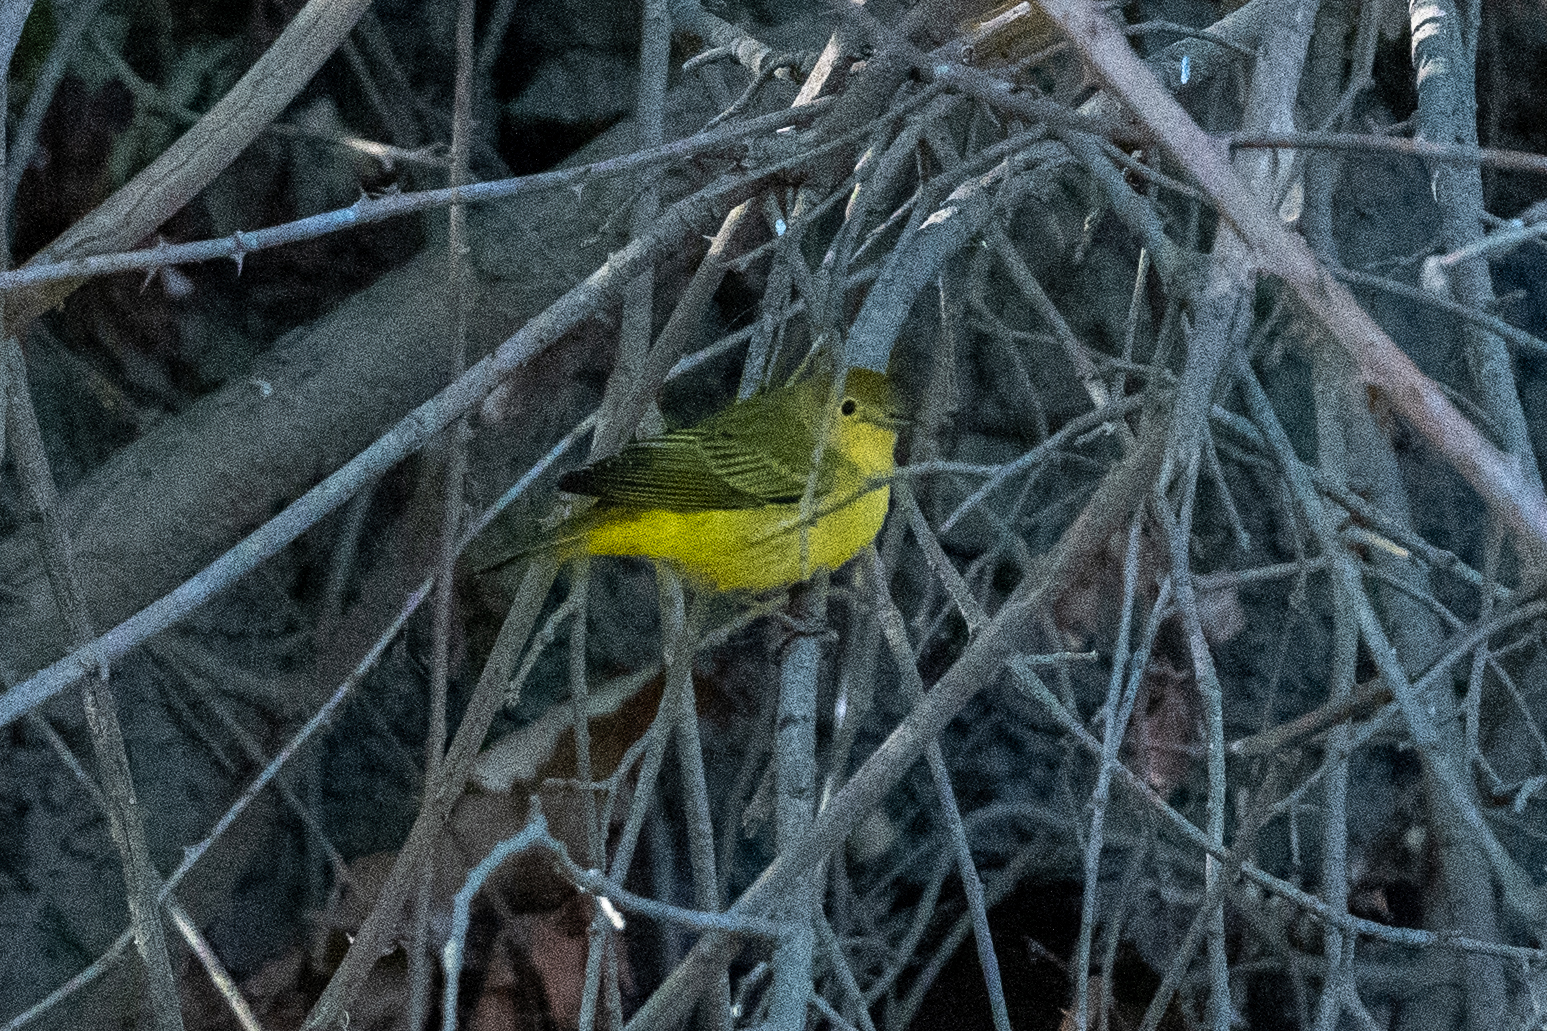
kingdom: Animalia
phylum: Chordata
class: Aves
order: Passeriformes
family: Parulidae
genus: Setophaga
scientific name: Setophaga petechia
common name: Yellow warbler
